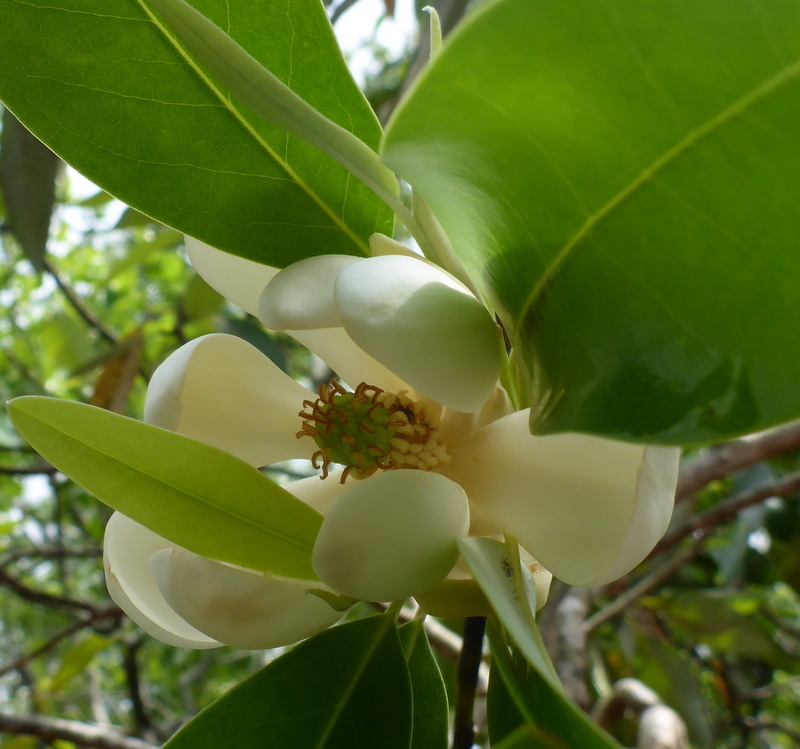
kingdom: Plantae
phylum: Tracheophyta
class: Magnoliopsida
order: Magnoliales
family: Magnoliaceae
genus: Magnolia
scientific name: Magnolia virginiana
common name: Swamp bay
